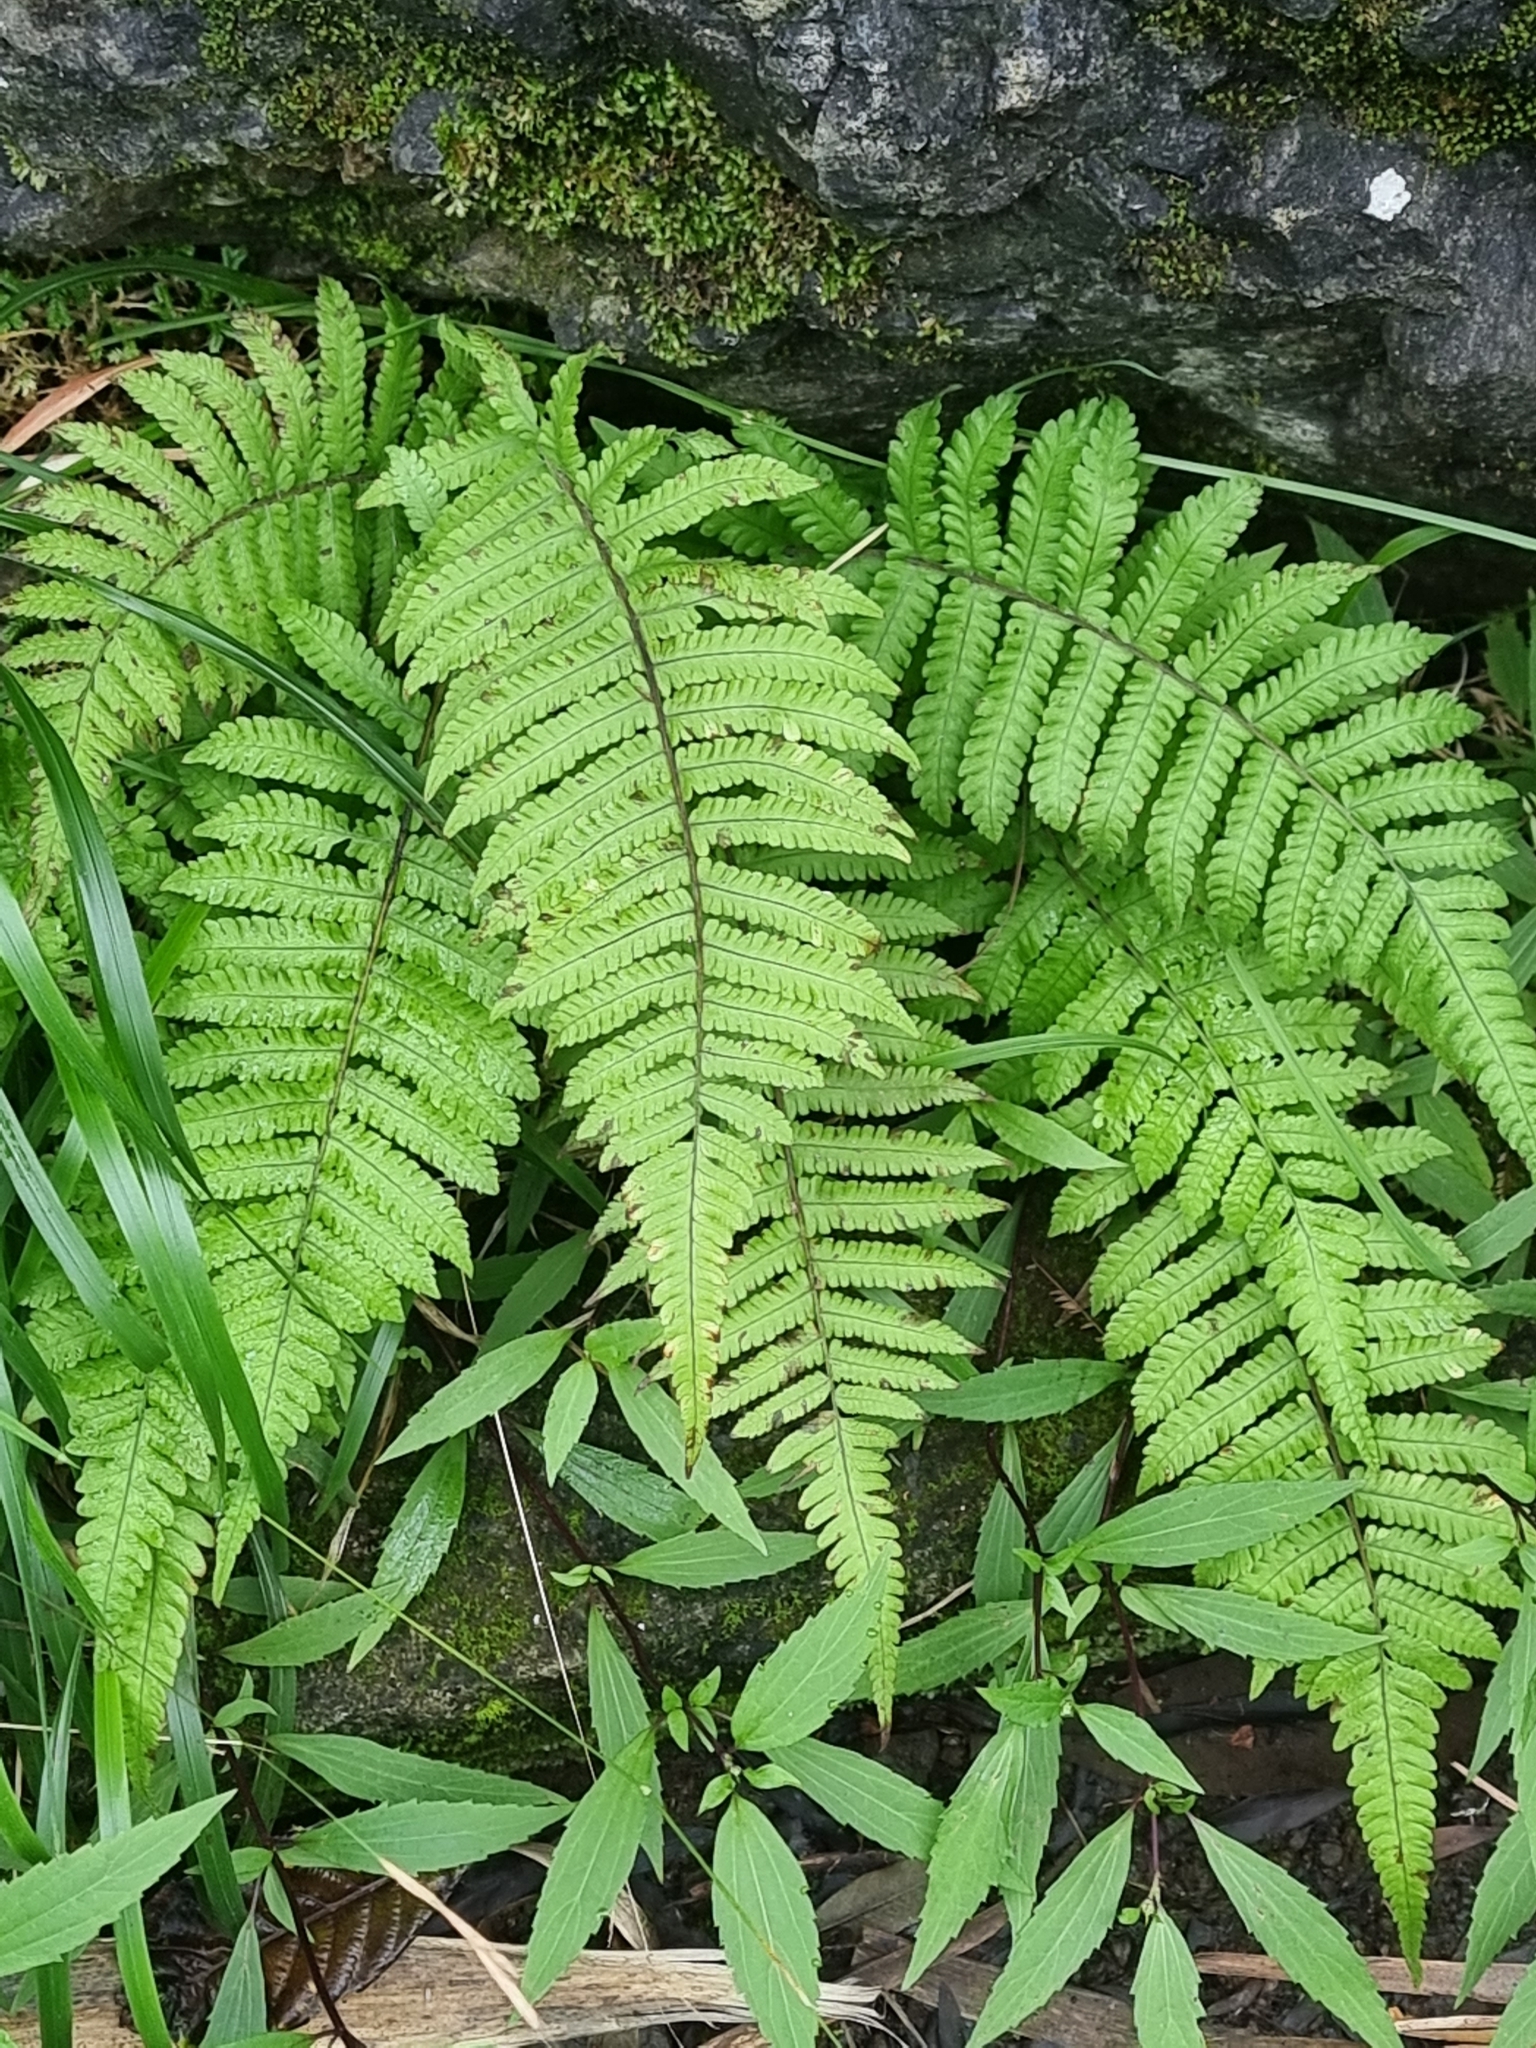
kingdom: Plantae
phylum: Tracheophyta
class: Polypodiopsida
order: Polypodiales
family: Thelypteridaceae
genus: Christella
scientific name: Christella dentata
